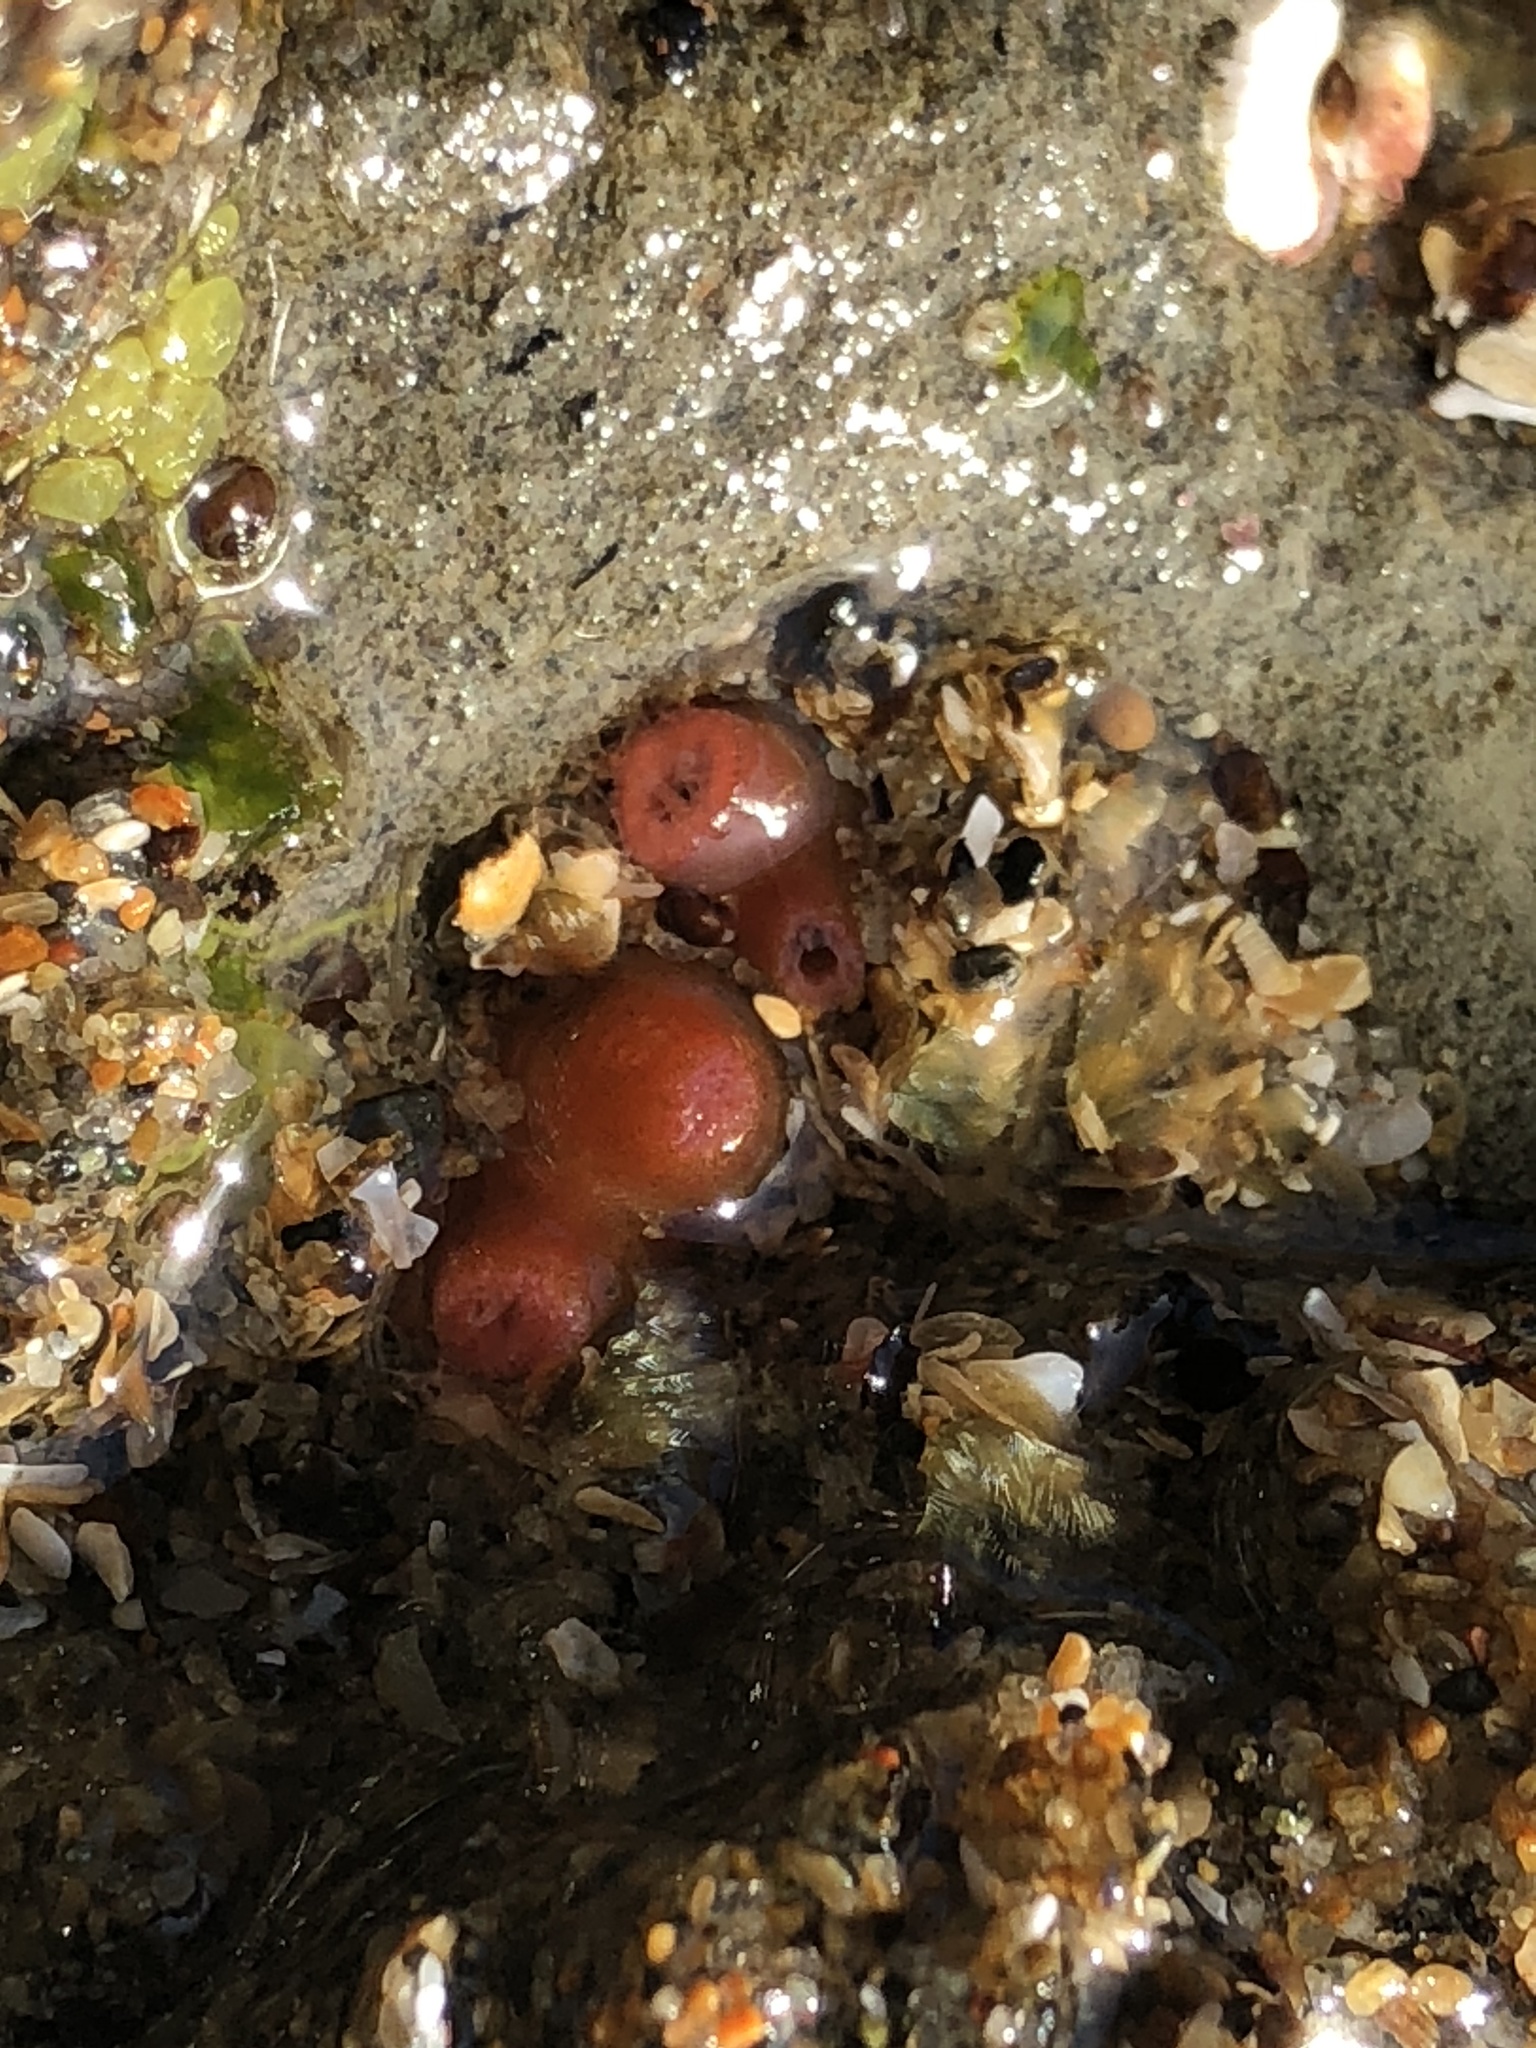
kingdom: Animalia
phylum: Mollusca
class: Bivalvia
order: Adapedonta
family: Hiatellidae
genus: Hiatella
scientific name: Hiatella arctica
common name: Arctic hiatella
